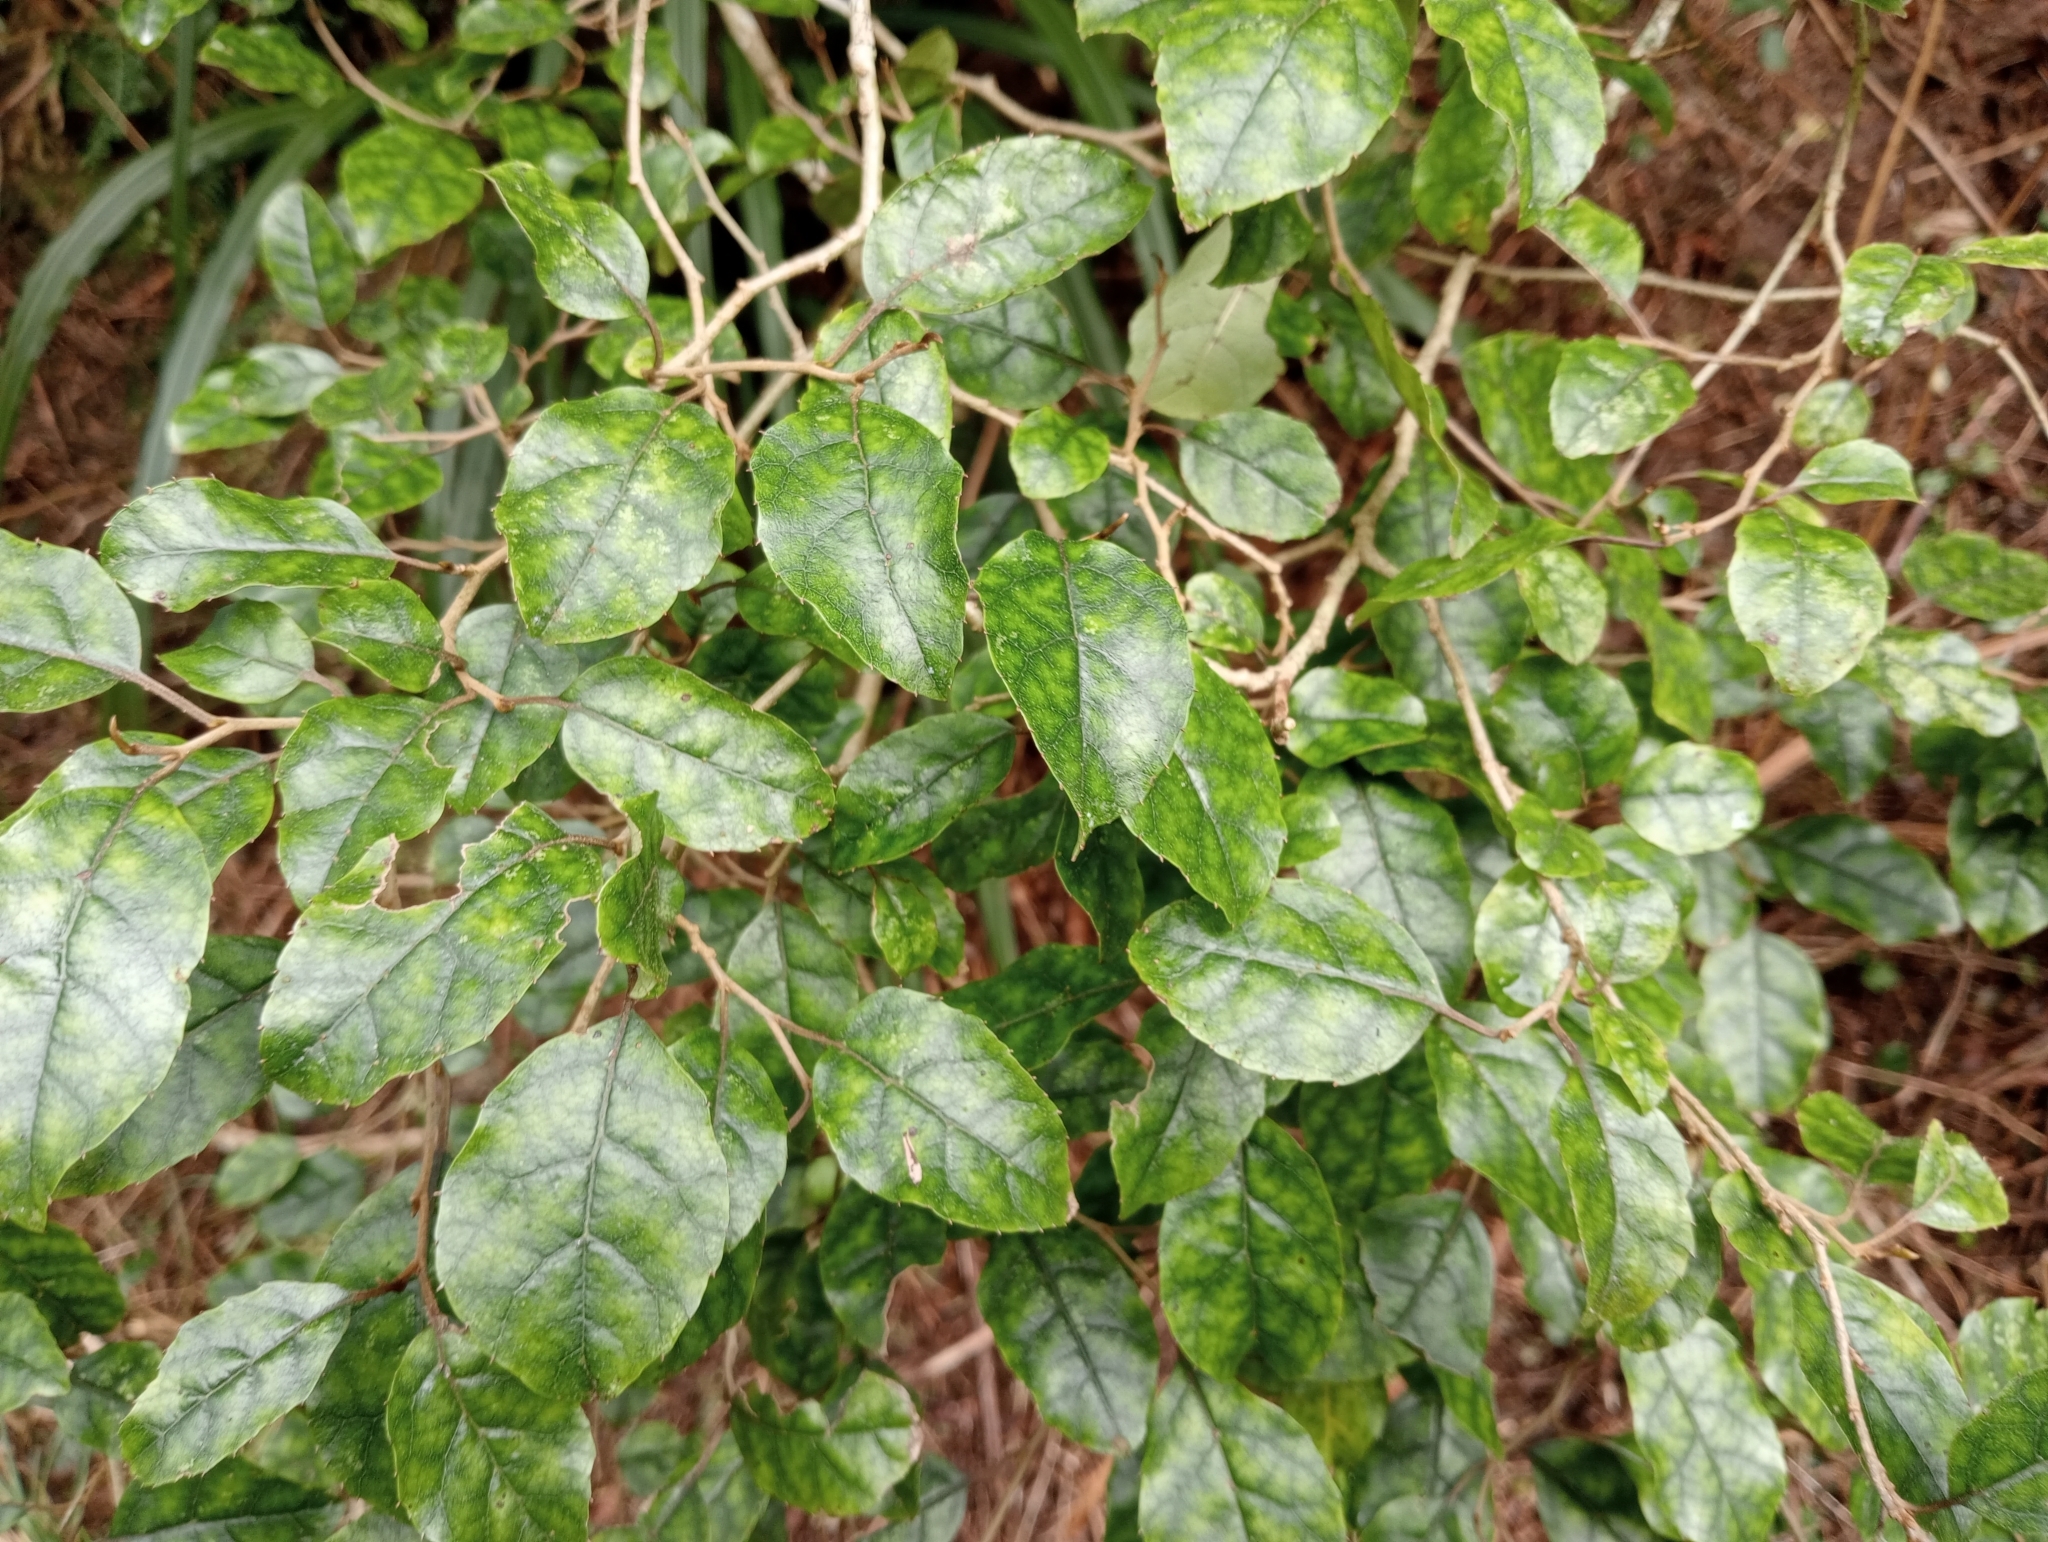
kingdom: Plantae
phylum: Tracheophyta
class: Magnoliopsida
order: Asterales
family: Rousseaceae
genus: Carpodetus
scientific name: Carpodetus serratus
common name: White mapau
